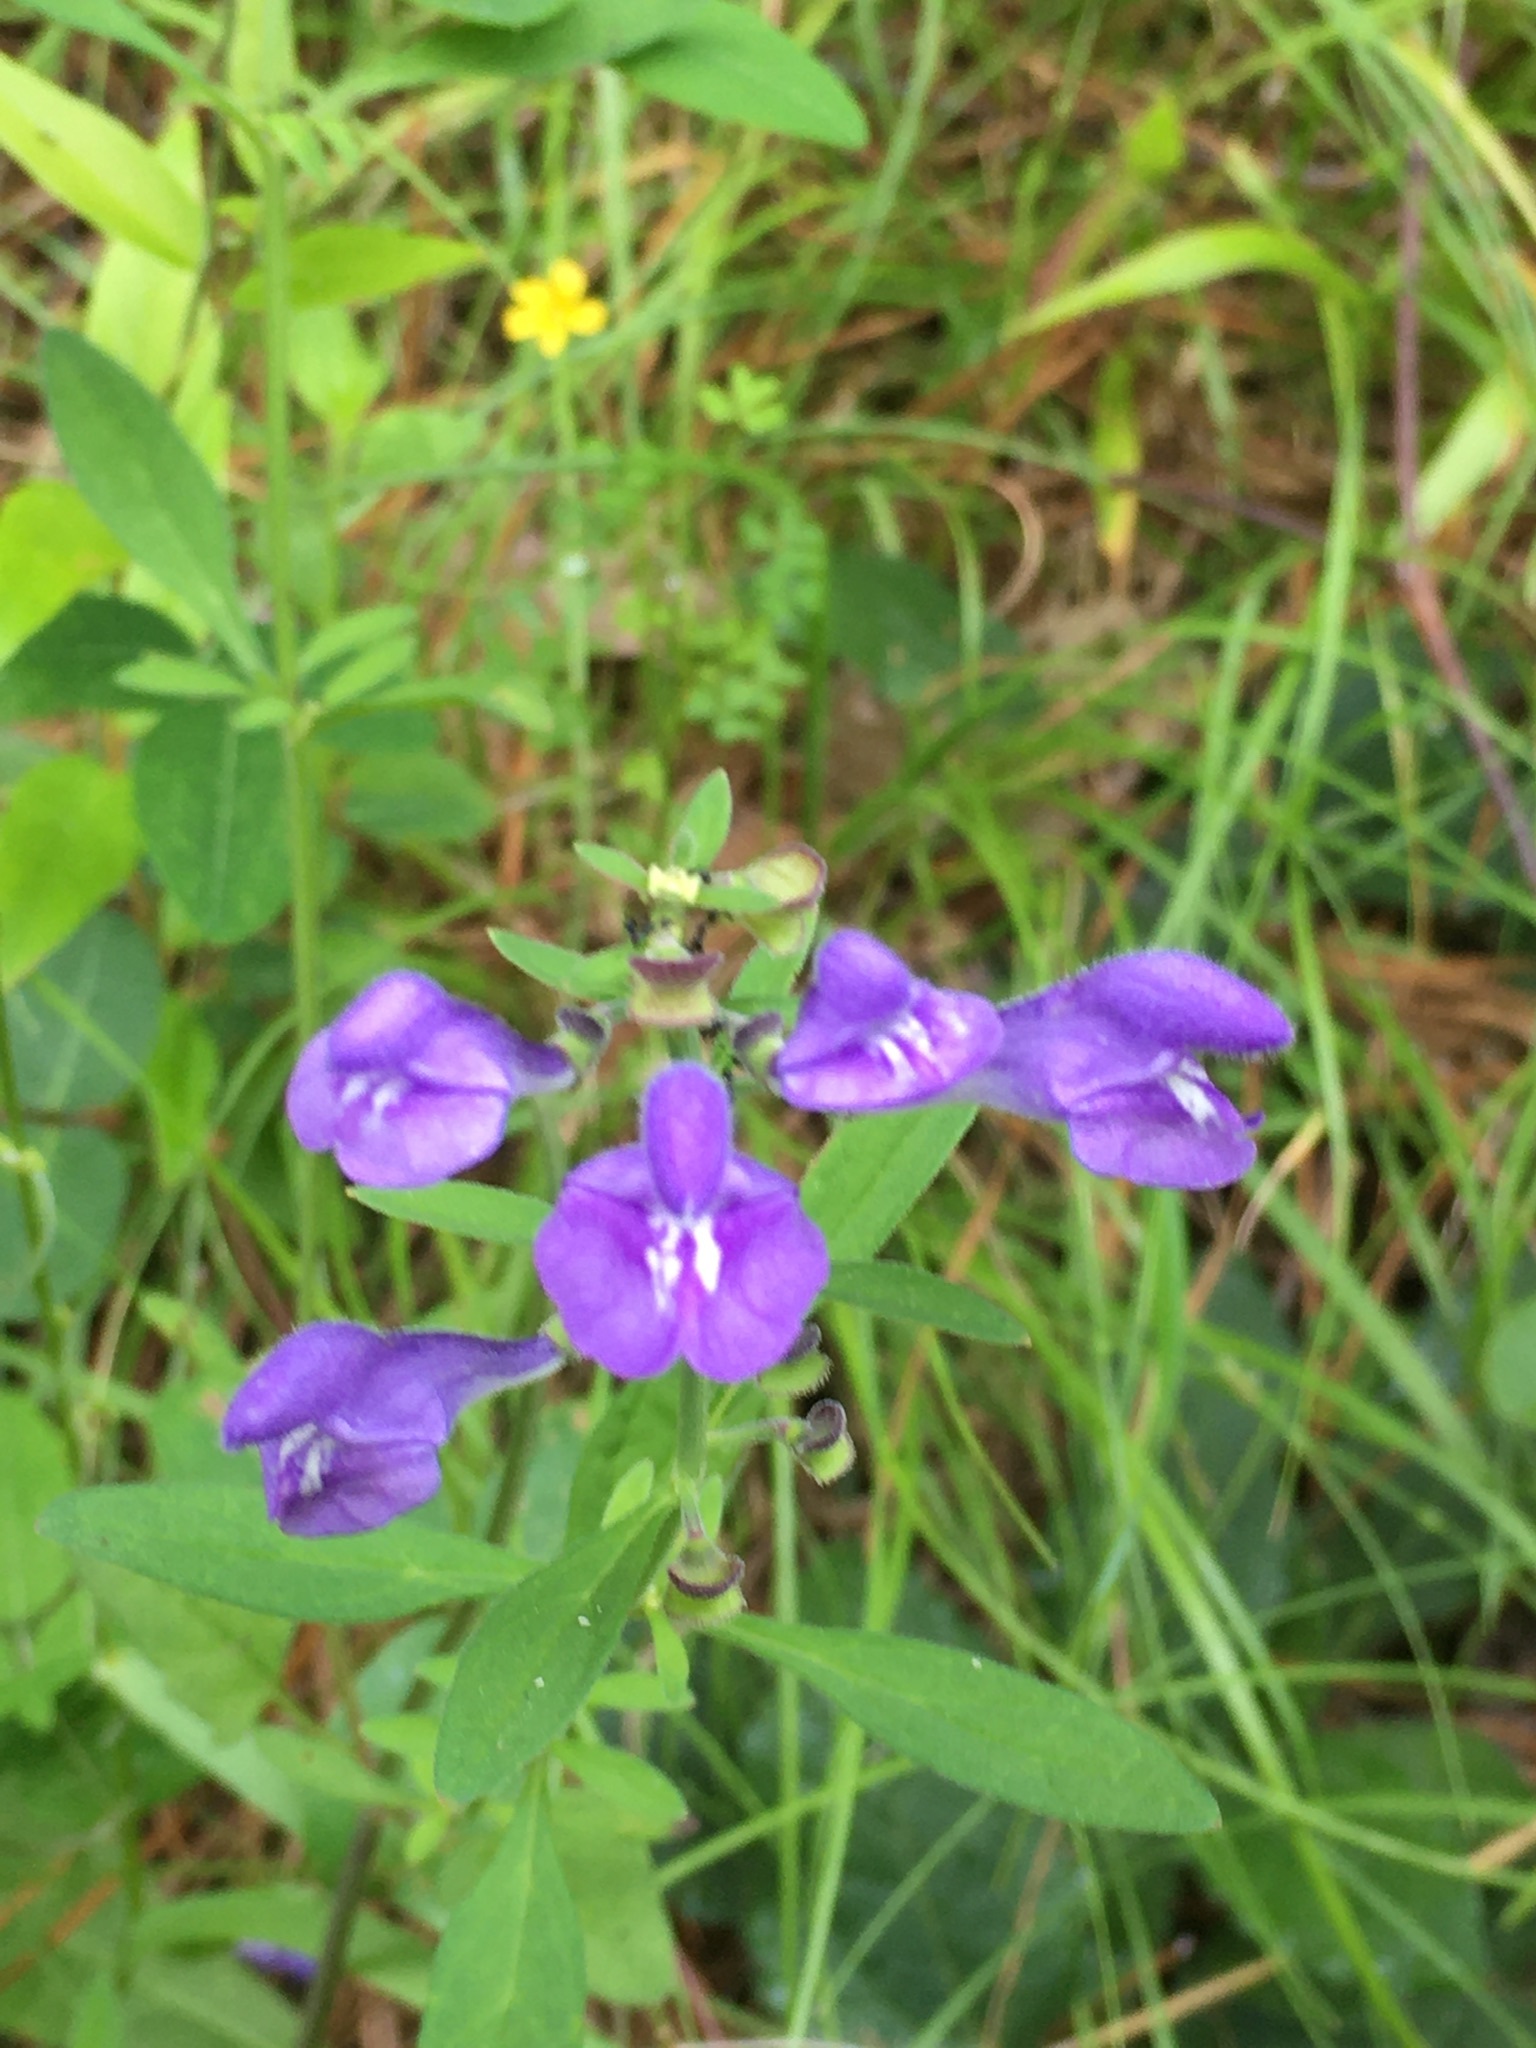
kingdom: Plantae
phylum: Tracheophyta
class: Magnoliopsida
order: Lamiales
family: Lamiaceae
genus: Scutellaria
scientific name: Scutellaria integrifolia
